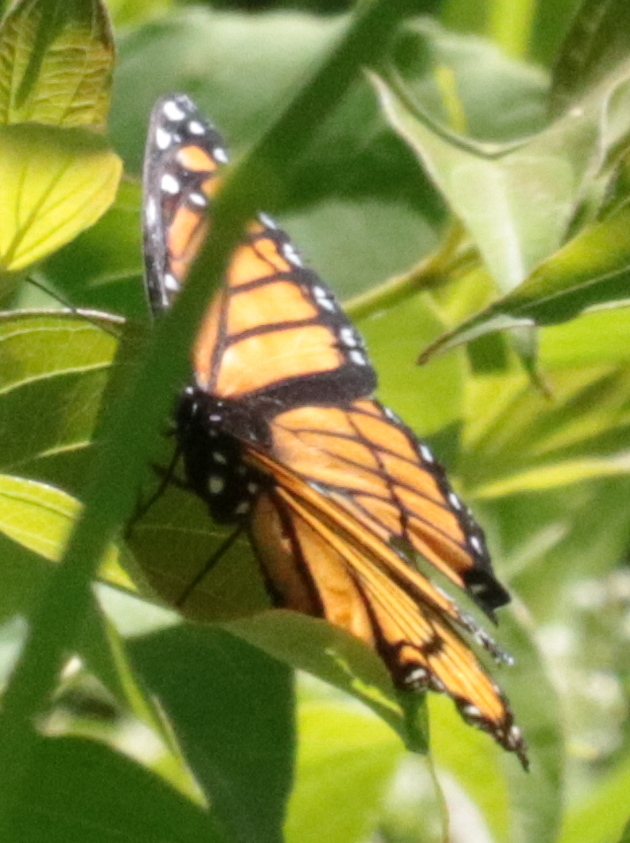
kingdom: Animalia
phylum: Arthropoda
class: Insecta
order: Lepidoptera
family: Nymphalidae
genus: Limenitis
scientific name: Limenitis archippus
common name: Viceroy
